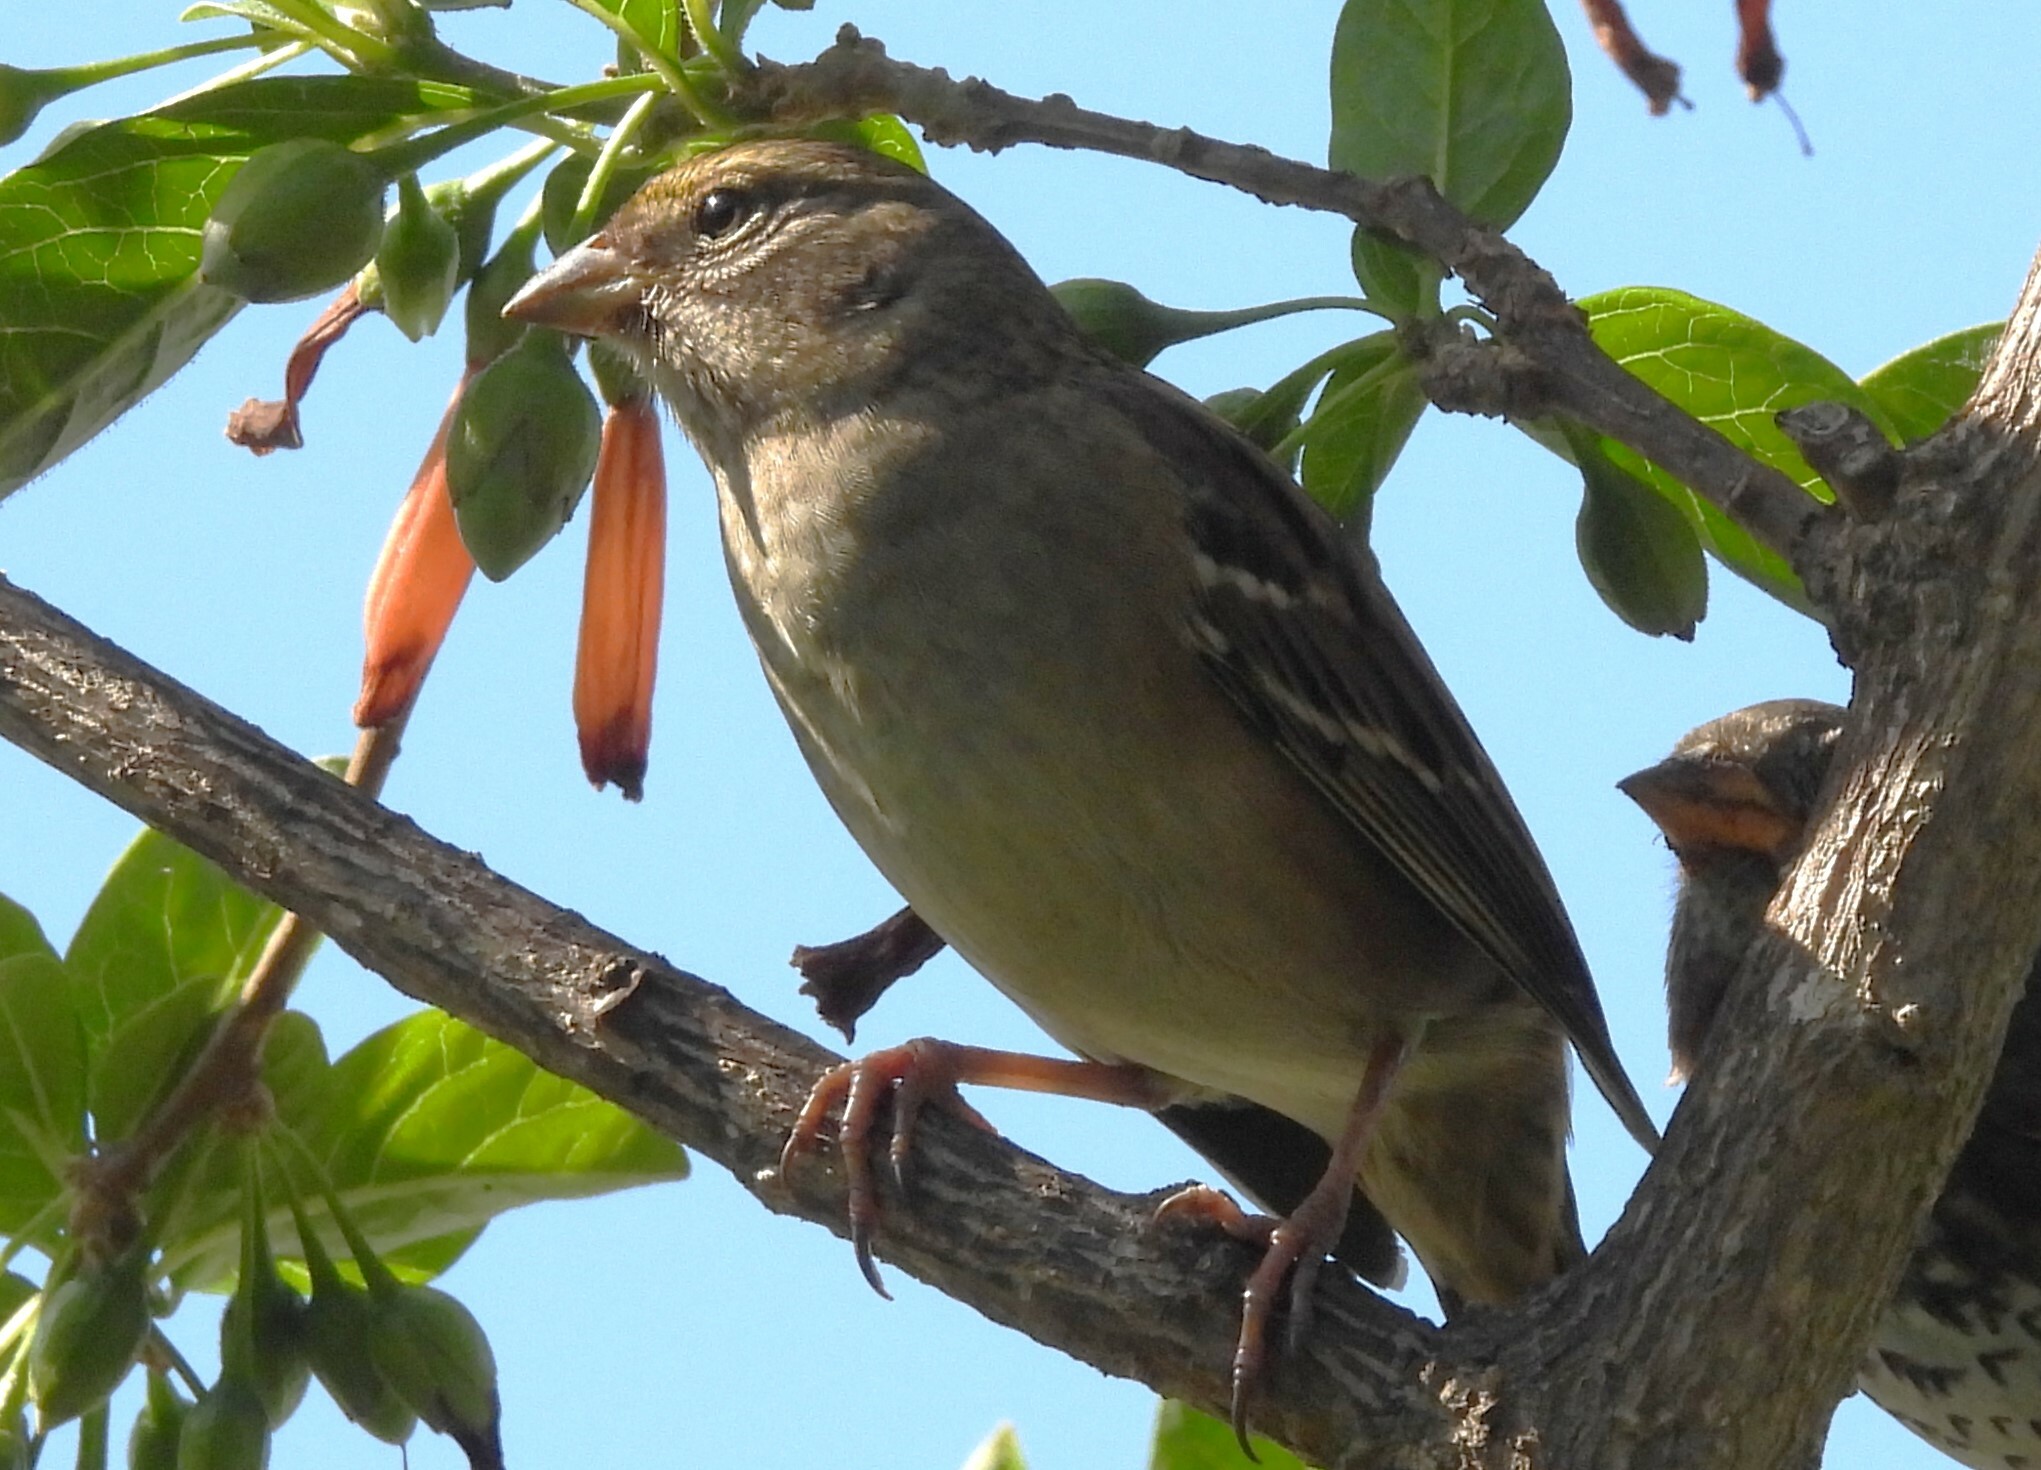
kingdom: Animalia
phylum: Chordata
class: Aves
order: Passeriformes
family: Passerellidae
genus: Zonotrichia
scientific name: Zonotrichia atricapilla
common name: Golden-crowned sparrow
